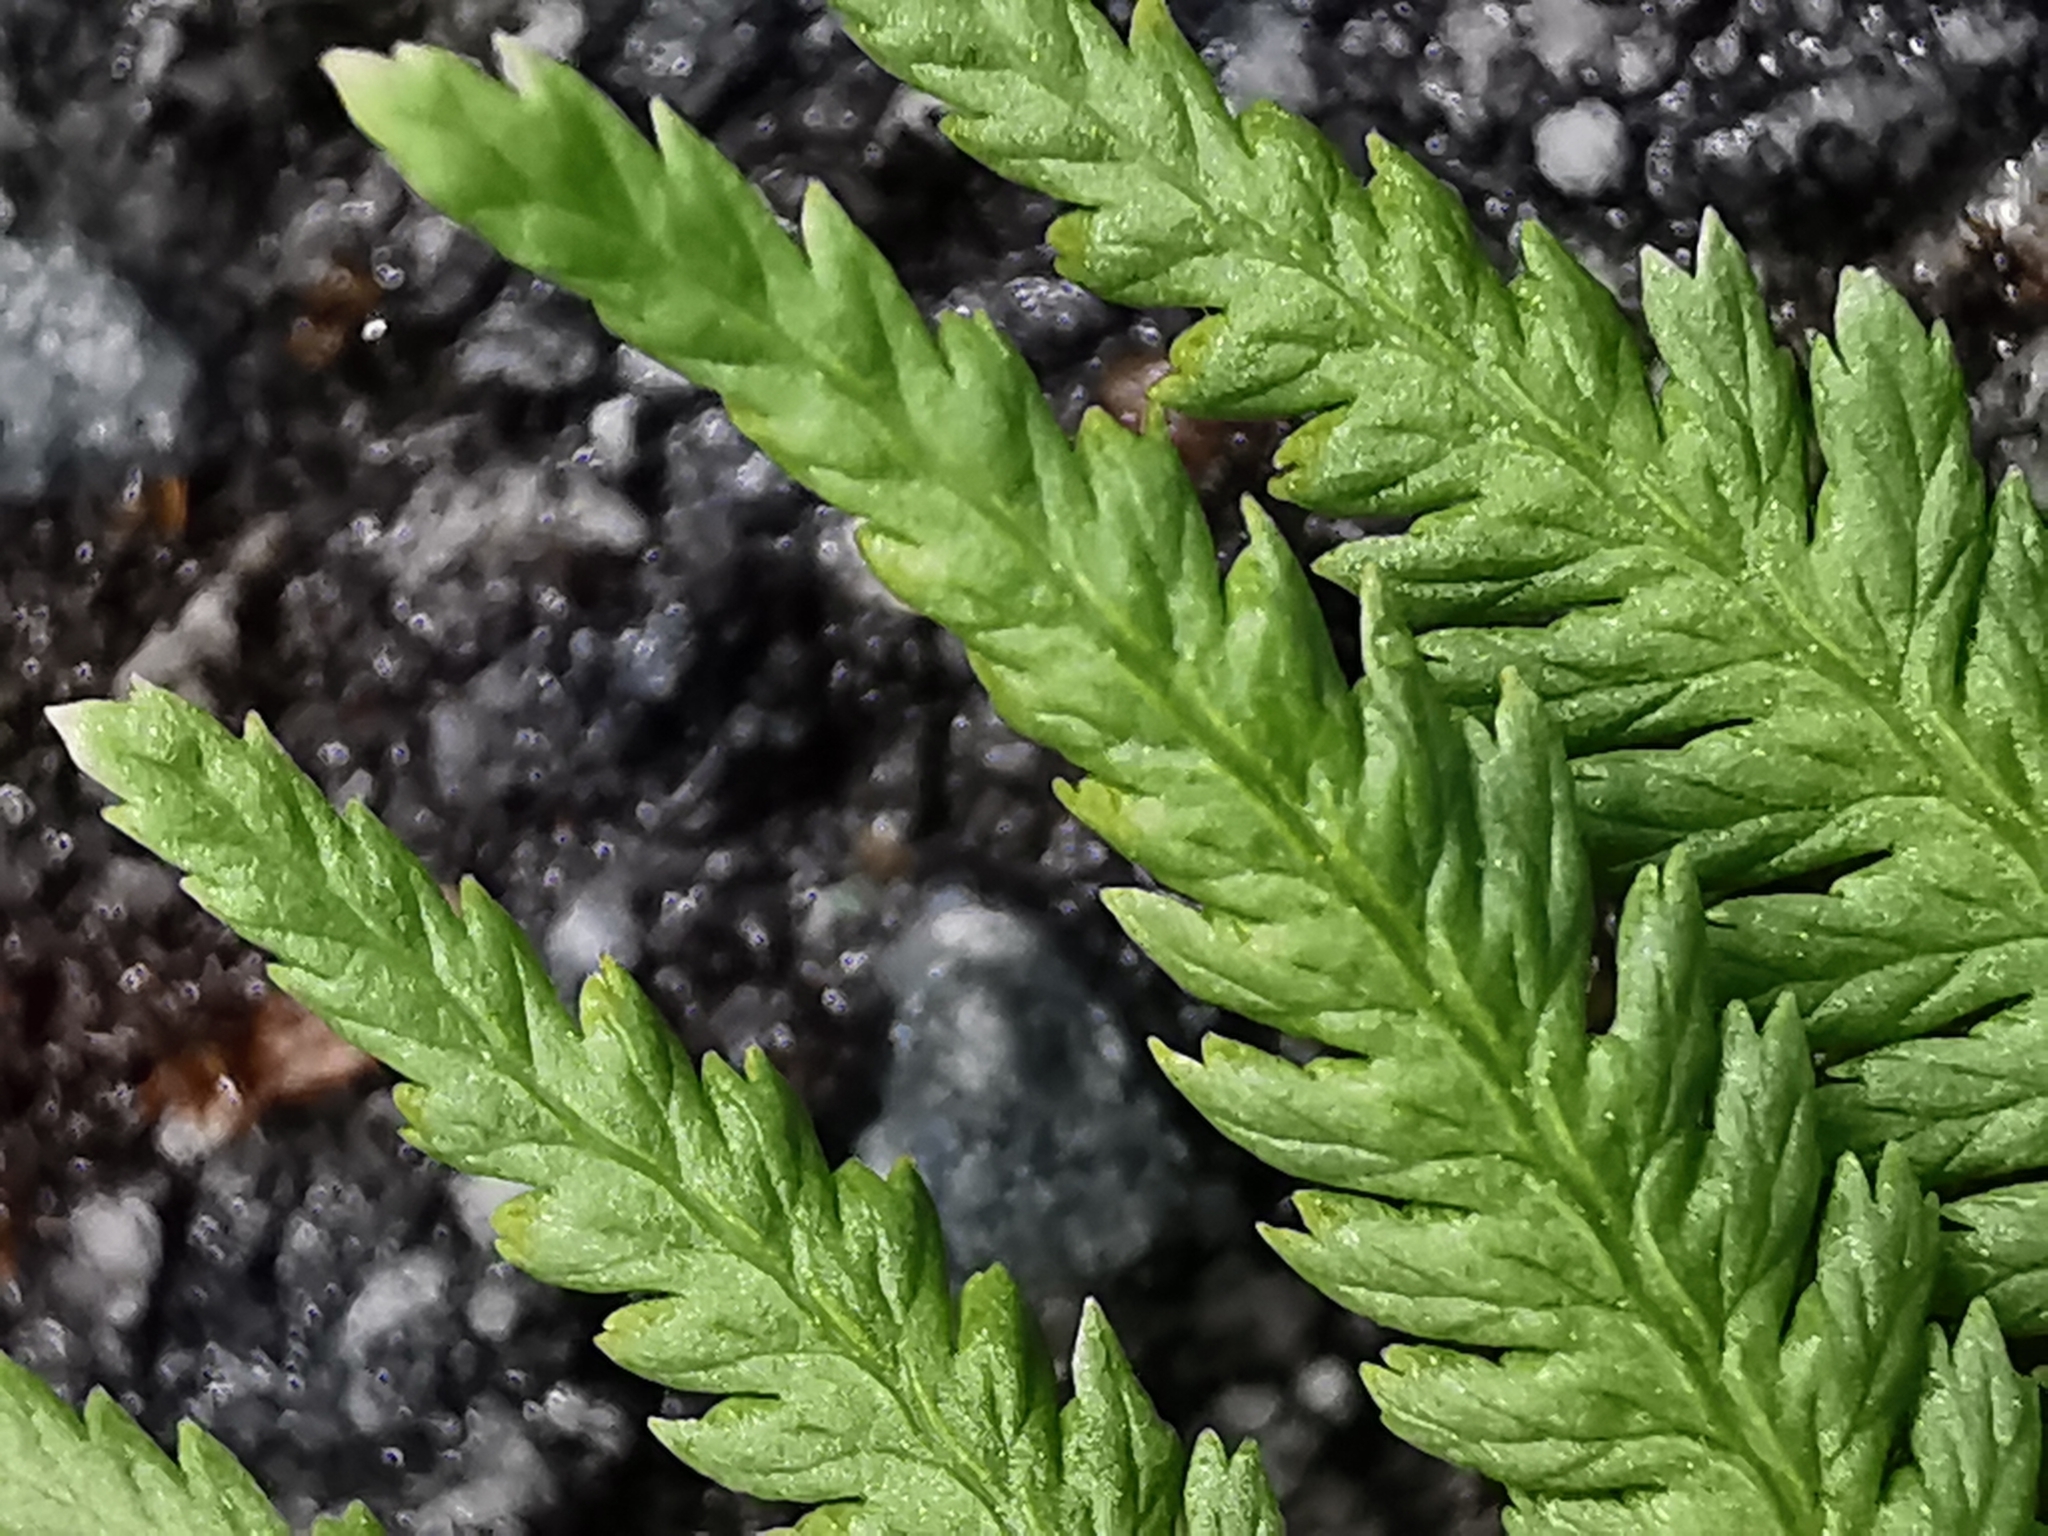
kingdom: Plantae
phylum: Tracheophyta
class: Polypodiopsida
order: Polypodiales
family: Dryopteridaceae
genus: Dryopteris
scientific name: Dryopteris filix-mas
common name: Male fern
